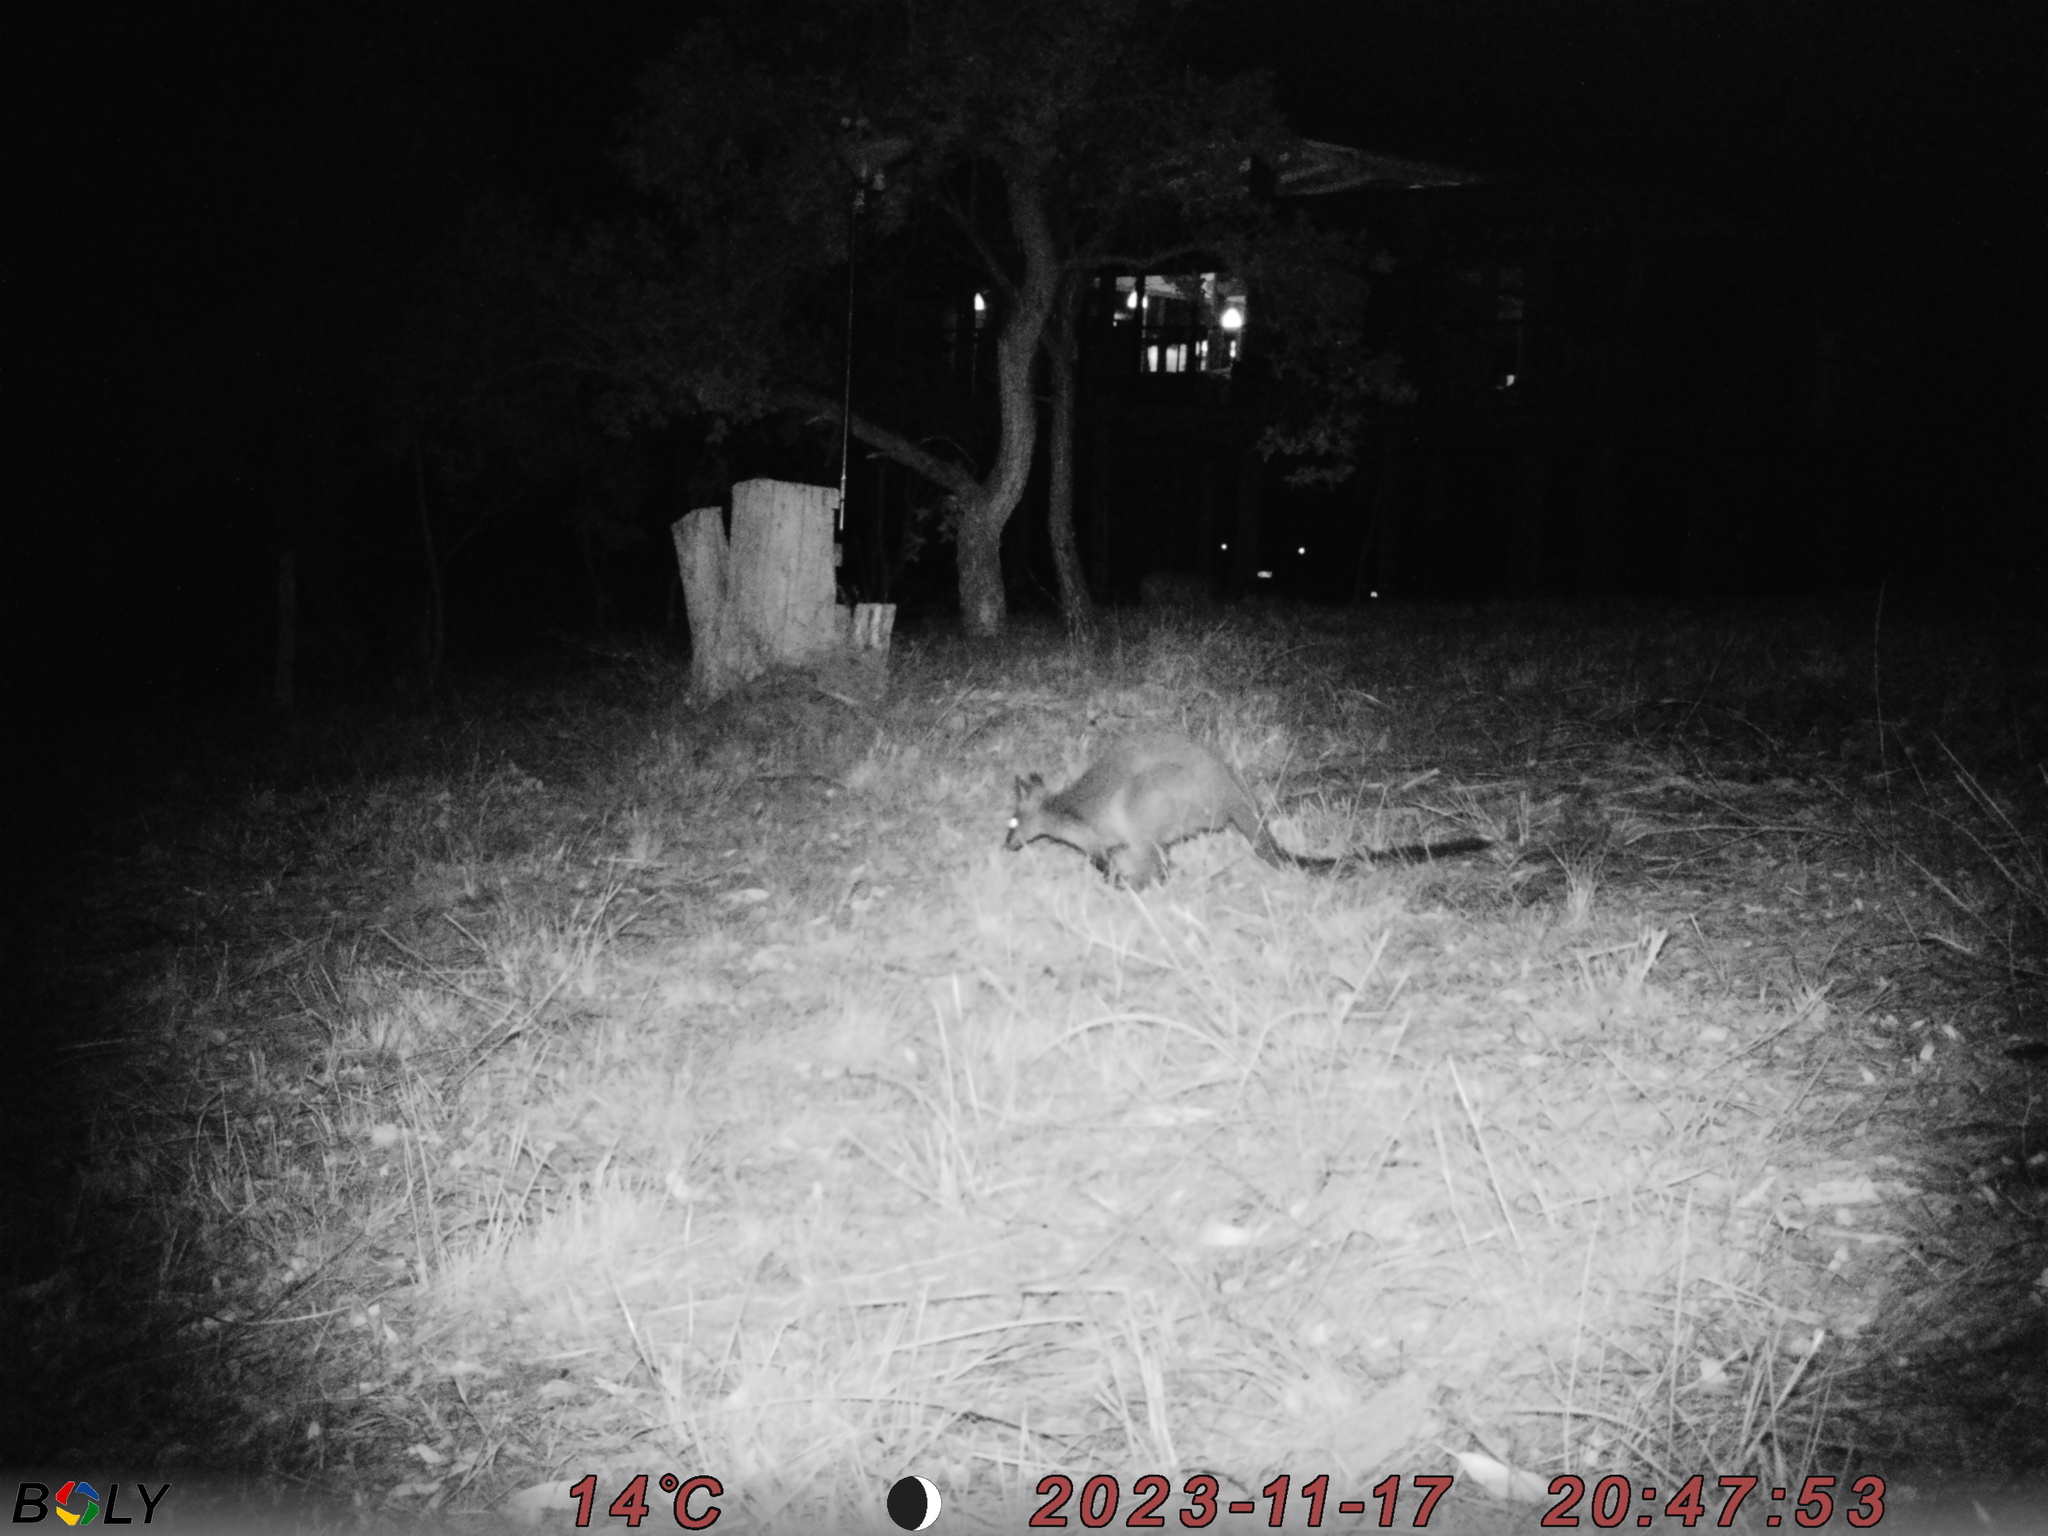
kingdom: Animalia
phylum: Chordata
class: Mammalia
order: Diprotodontia
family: Macropodidae
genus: Wallabia
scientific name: Wallabia bicolor
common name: Swamp wallaby
